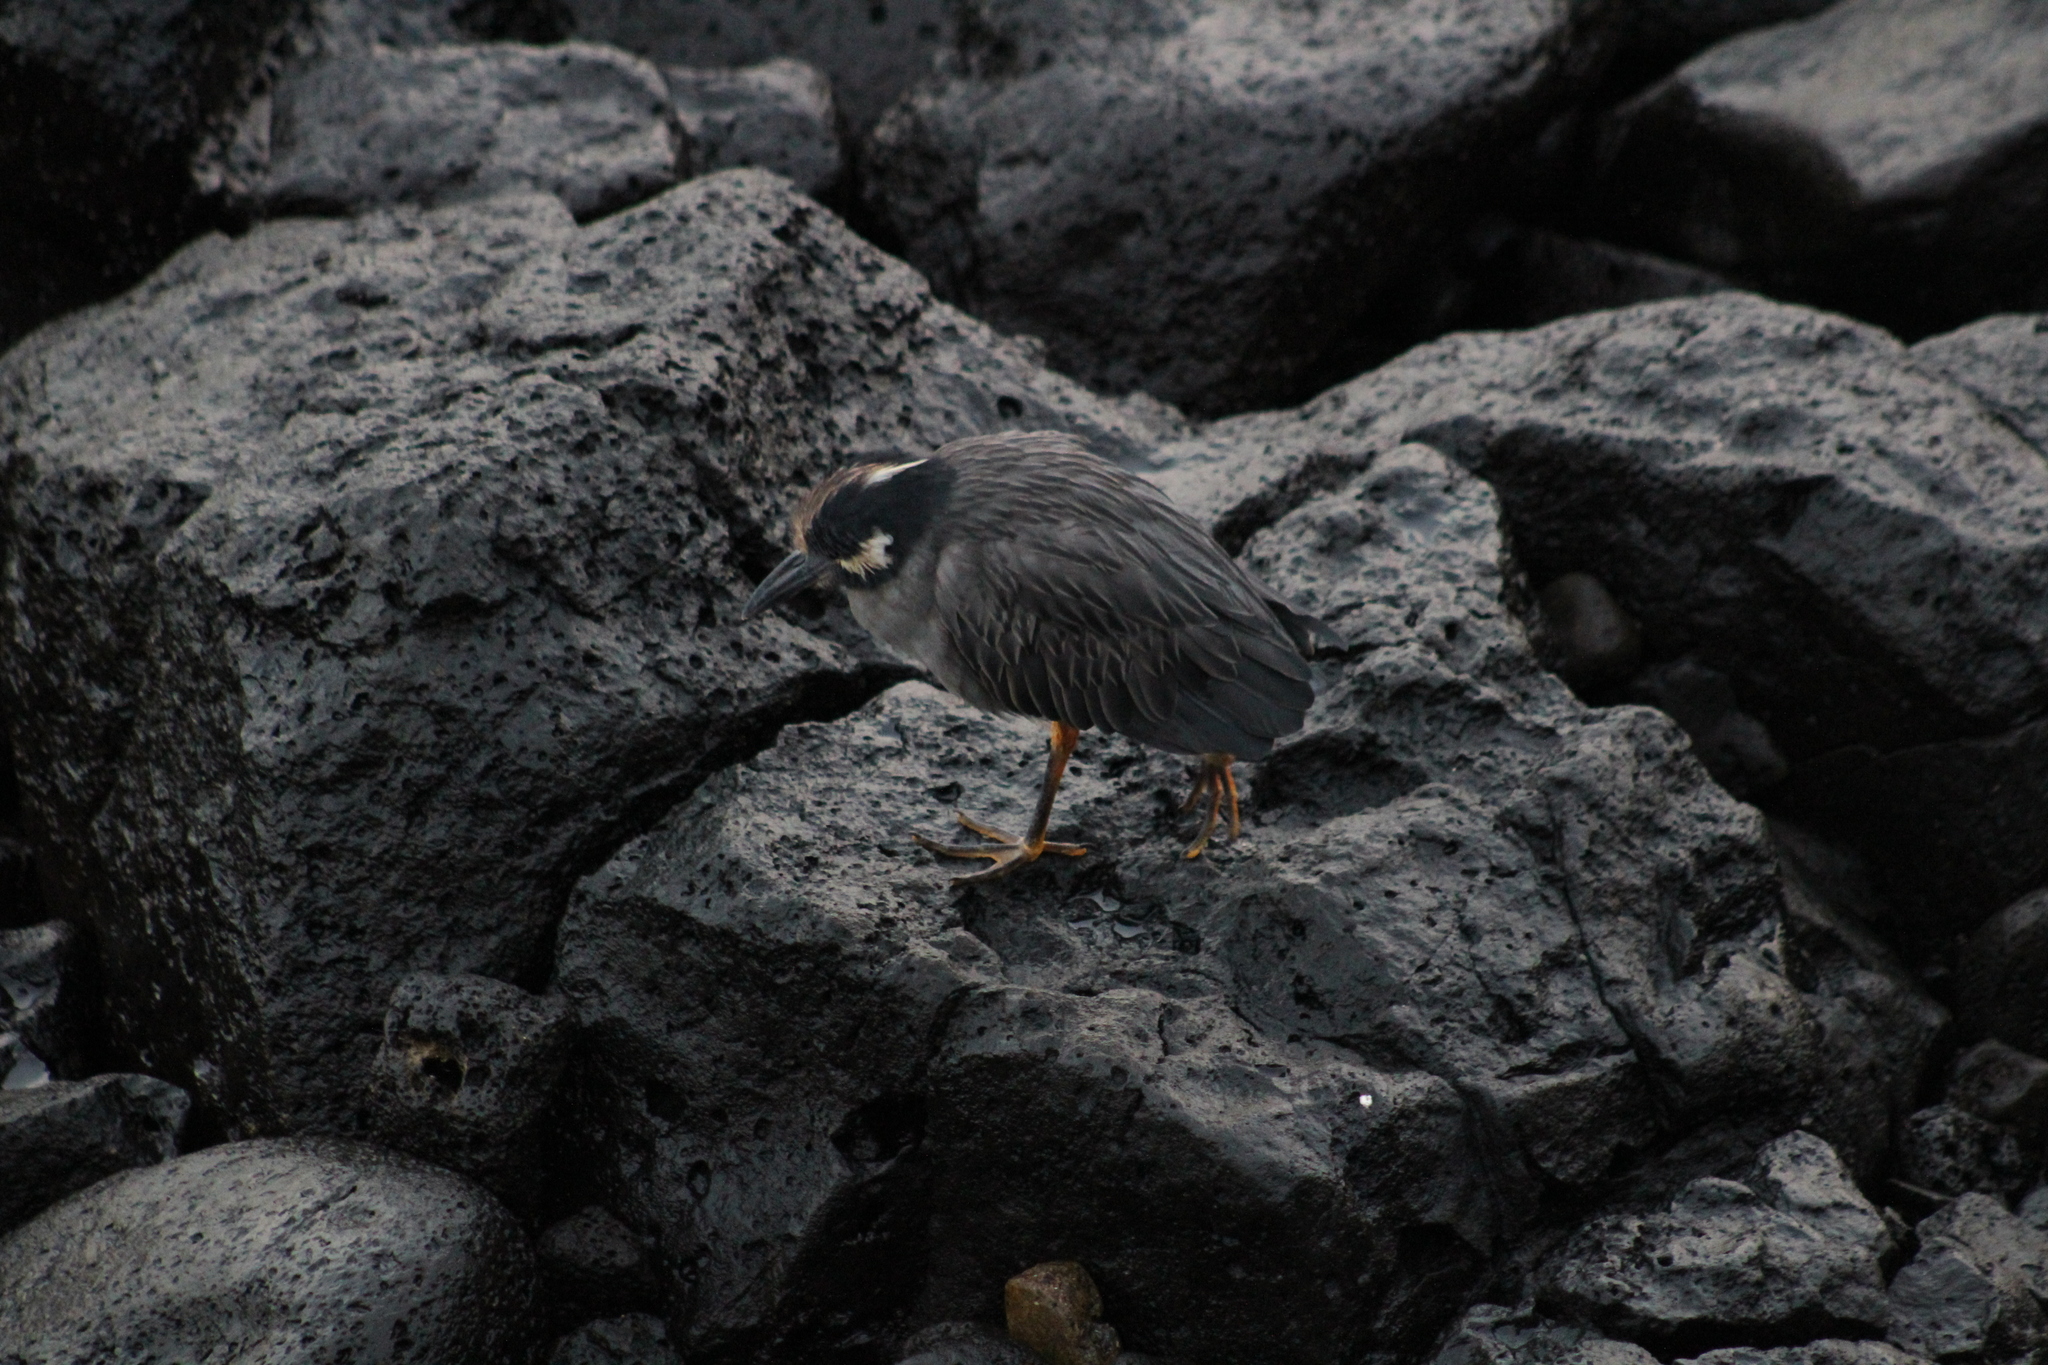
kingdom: Animalia
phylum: Chordata
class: Aves
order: Pelecaniformes
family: Ardeidae
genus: Nyctanassa
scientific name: Nyctanassa violacea
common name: Yellow-crowned night heron
